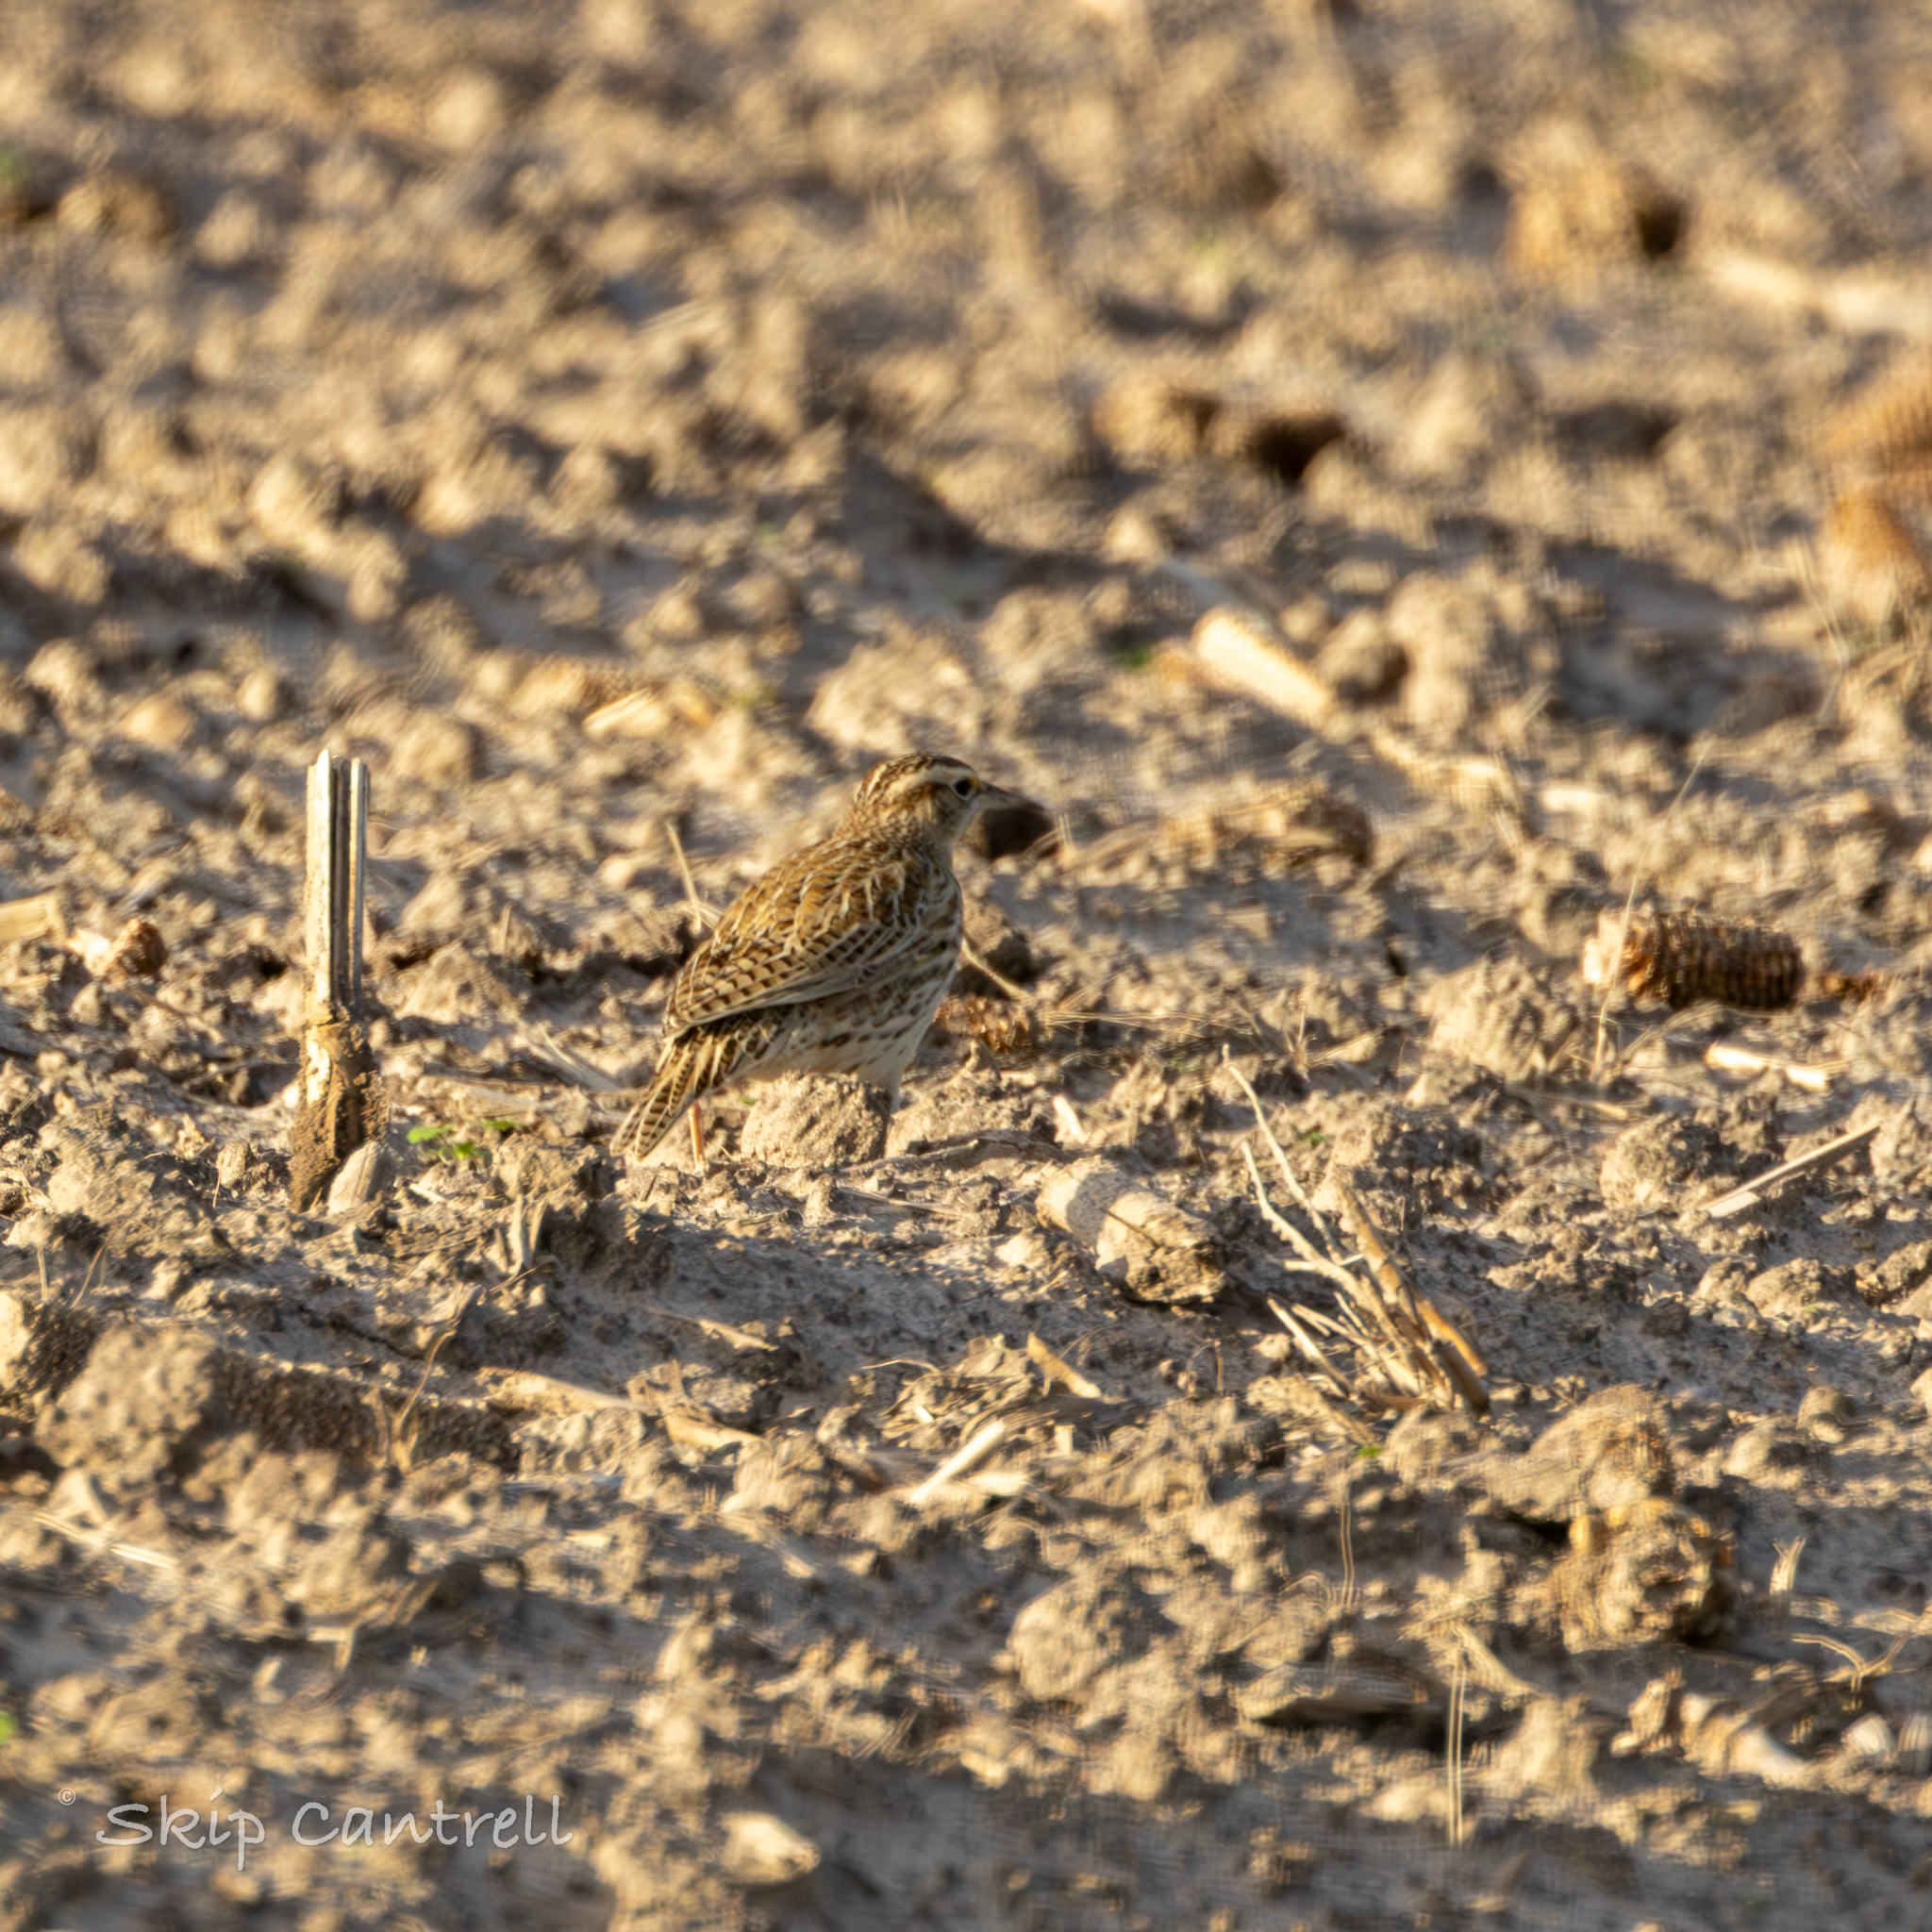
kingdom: Animalia
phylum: Chordata
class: Aves
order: Passeriformes
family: Icteridae
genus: Sturnella
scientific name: Sturnella neglecta
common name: Western meadowlark
